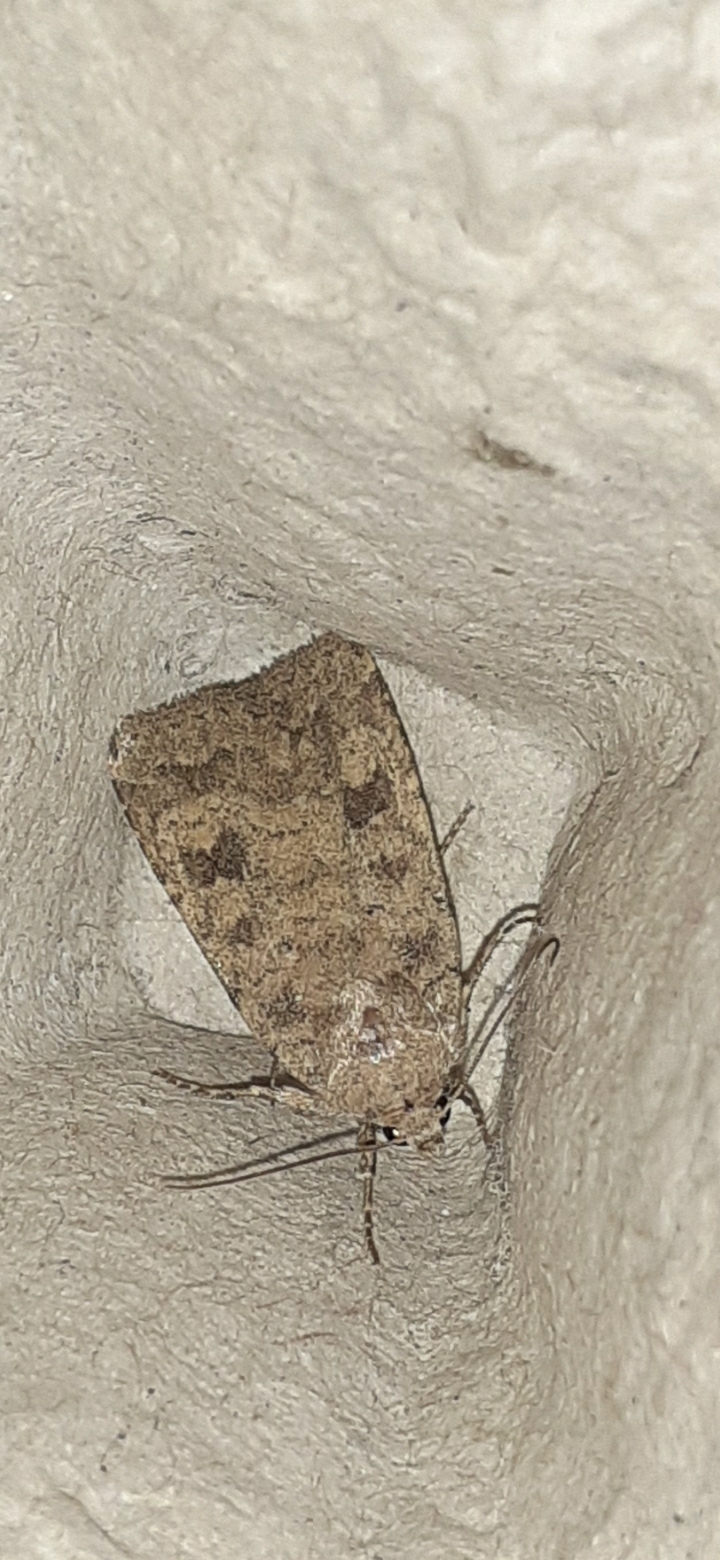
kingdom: Animalia
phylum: Arthropoda
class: Insecta
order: Lepidoptera
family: Noctuidae
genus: Caradrina
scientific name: Caradrina morpheus
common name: Mottled rustic
